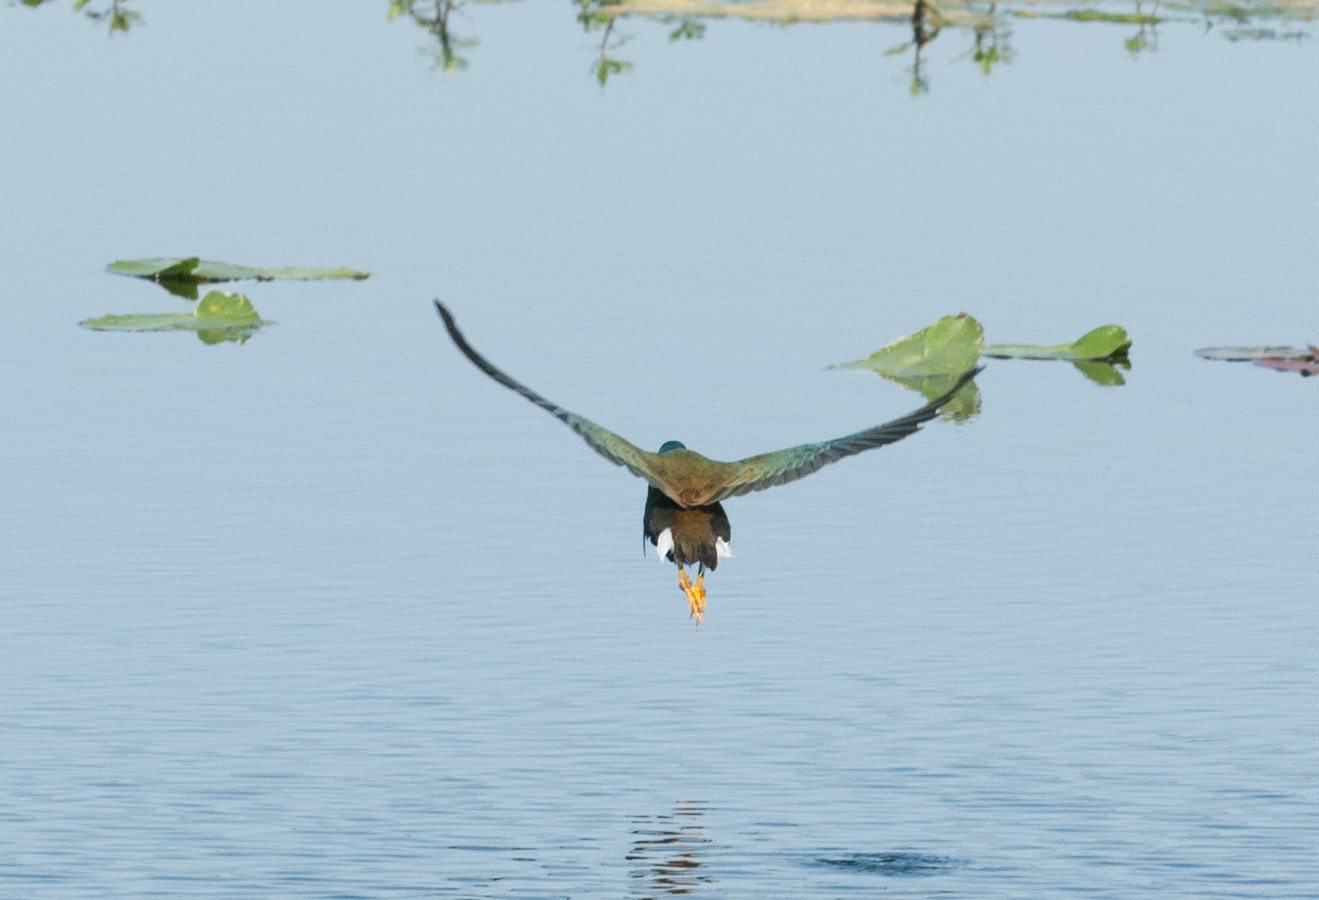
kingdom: Animalia
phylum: Chordata
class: Aves
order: Gruiformes
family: Rallidae
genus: Porphyrio
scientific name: Porphyrio martinica
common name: Purple gallinule
